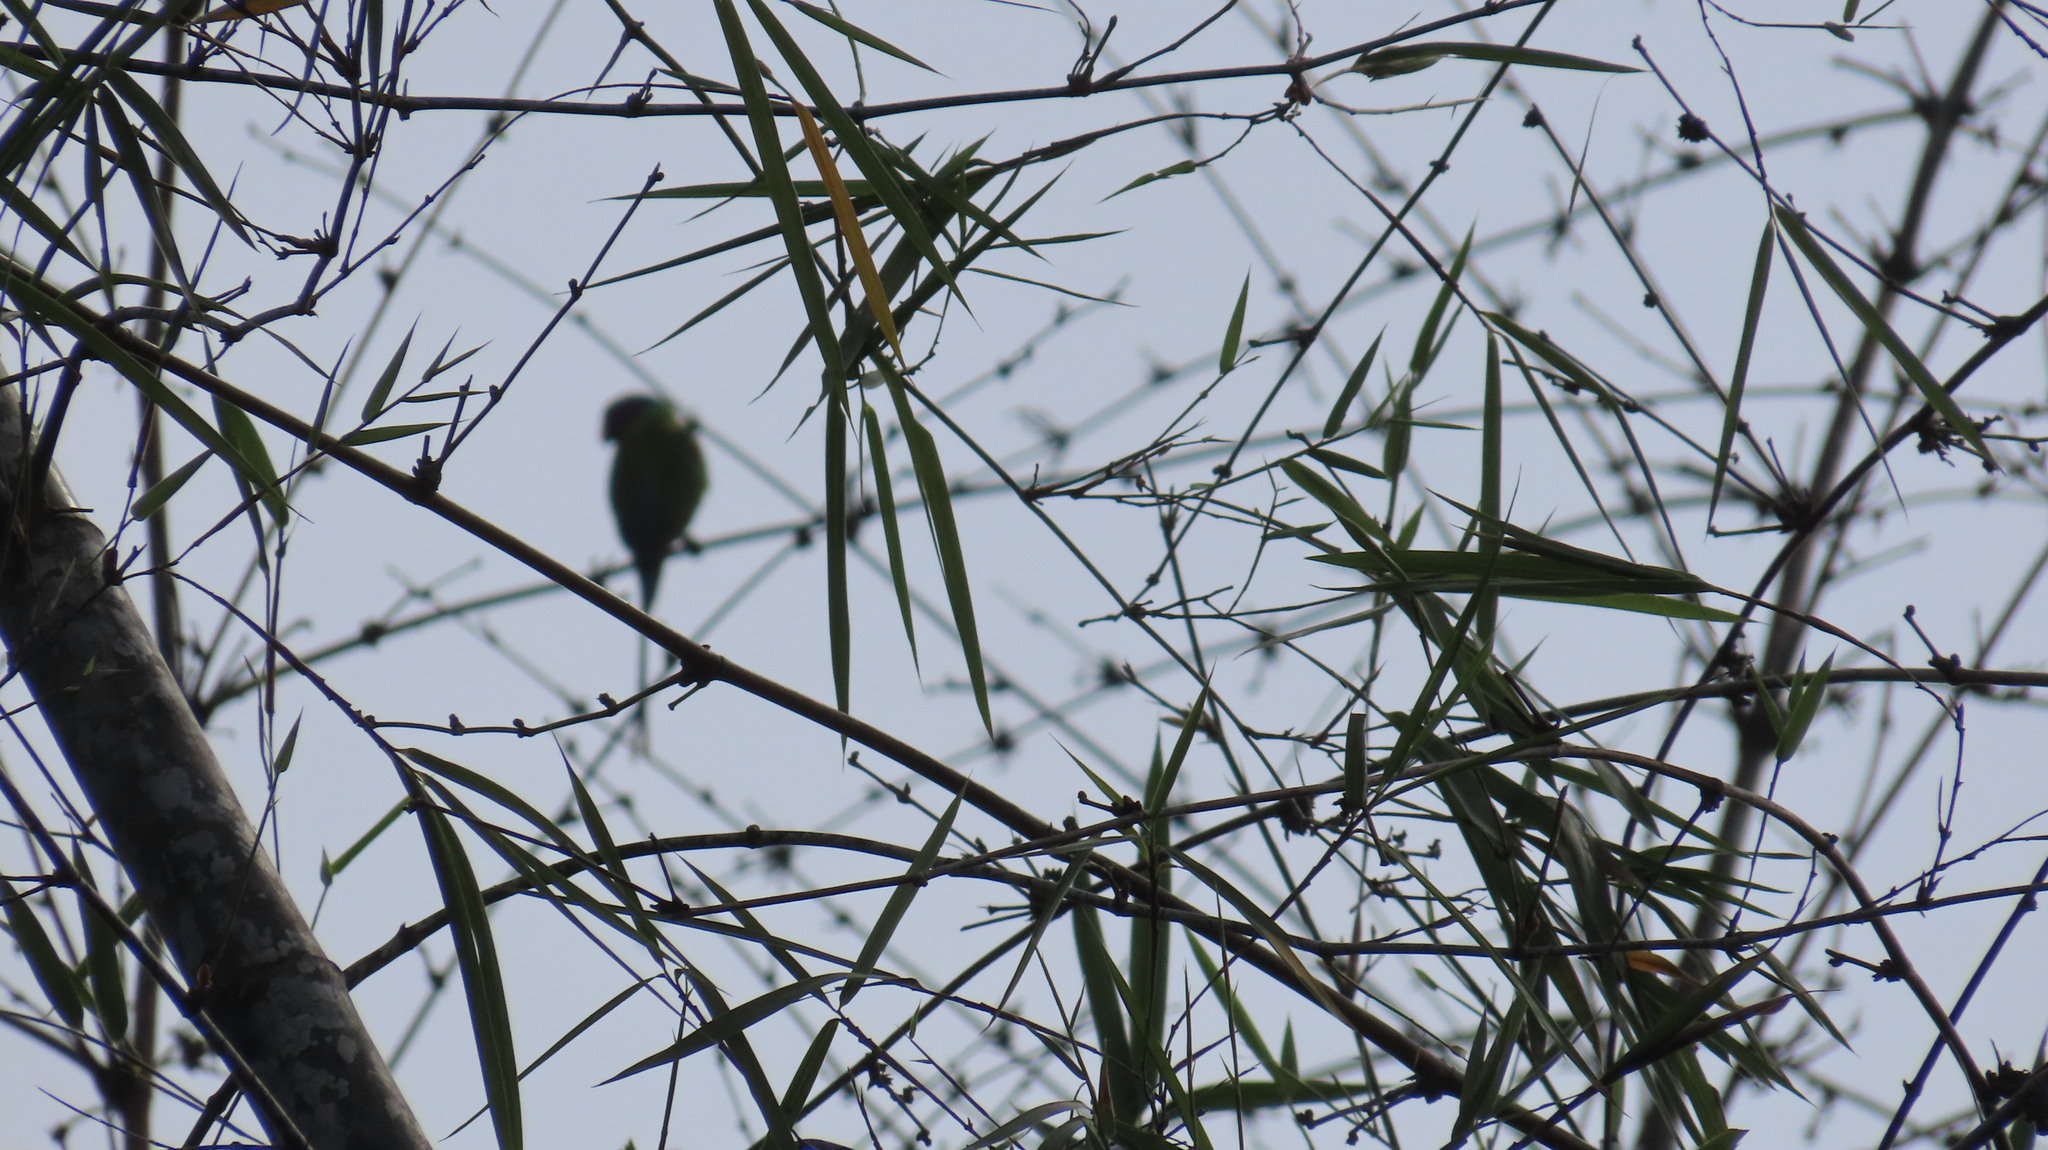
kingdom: Animalia
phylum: Chordata
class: Aves
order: Psittaciformes
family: Psittacidae
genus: Psittacula
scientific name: Psittacula cyanocephala
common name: Plum-headed parakeet
